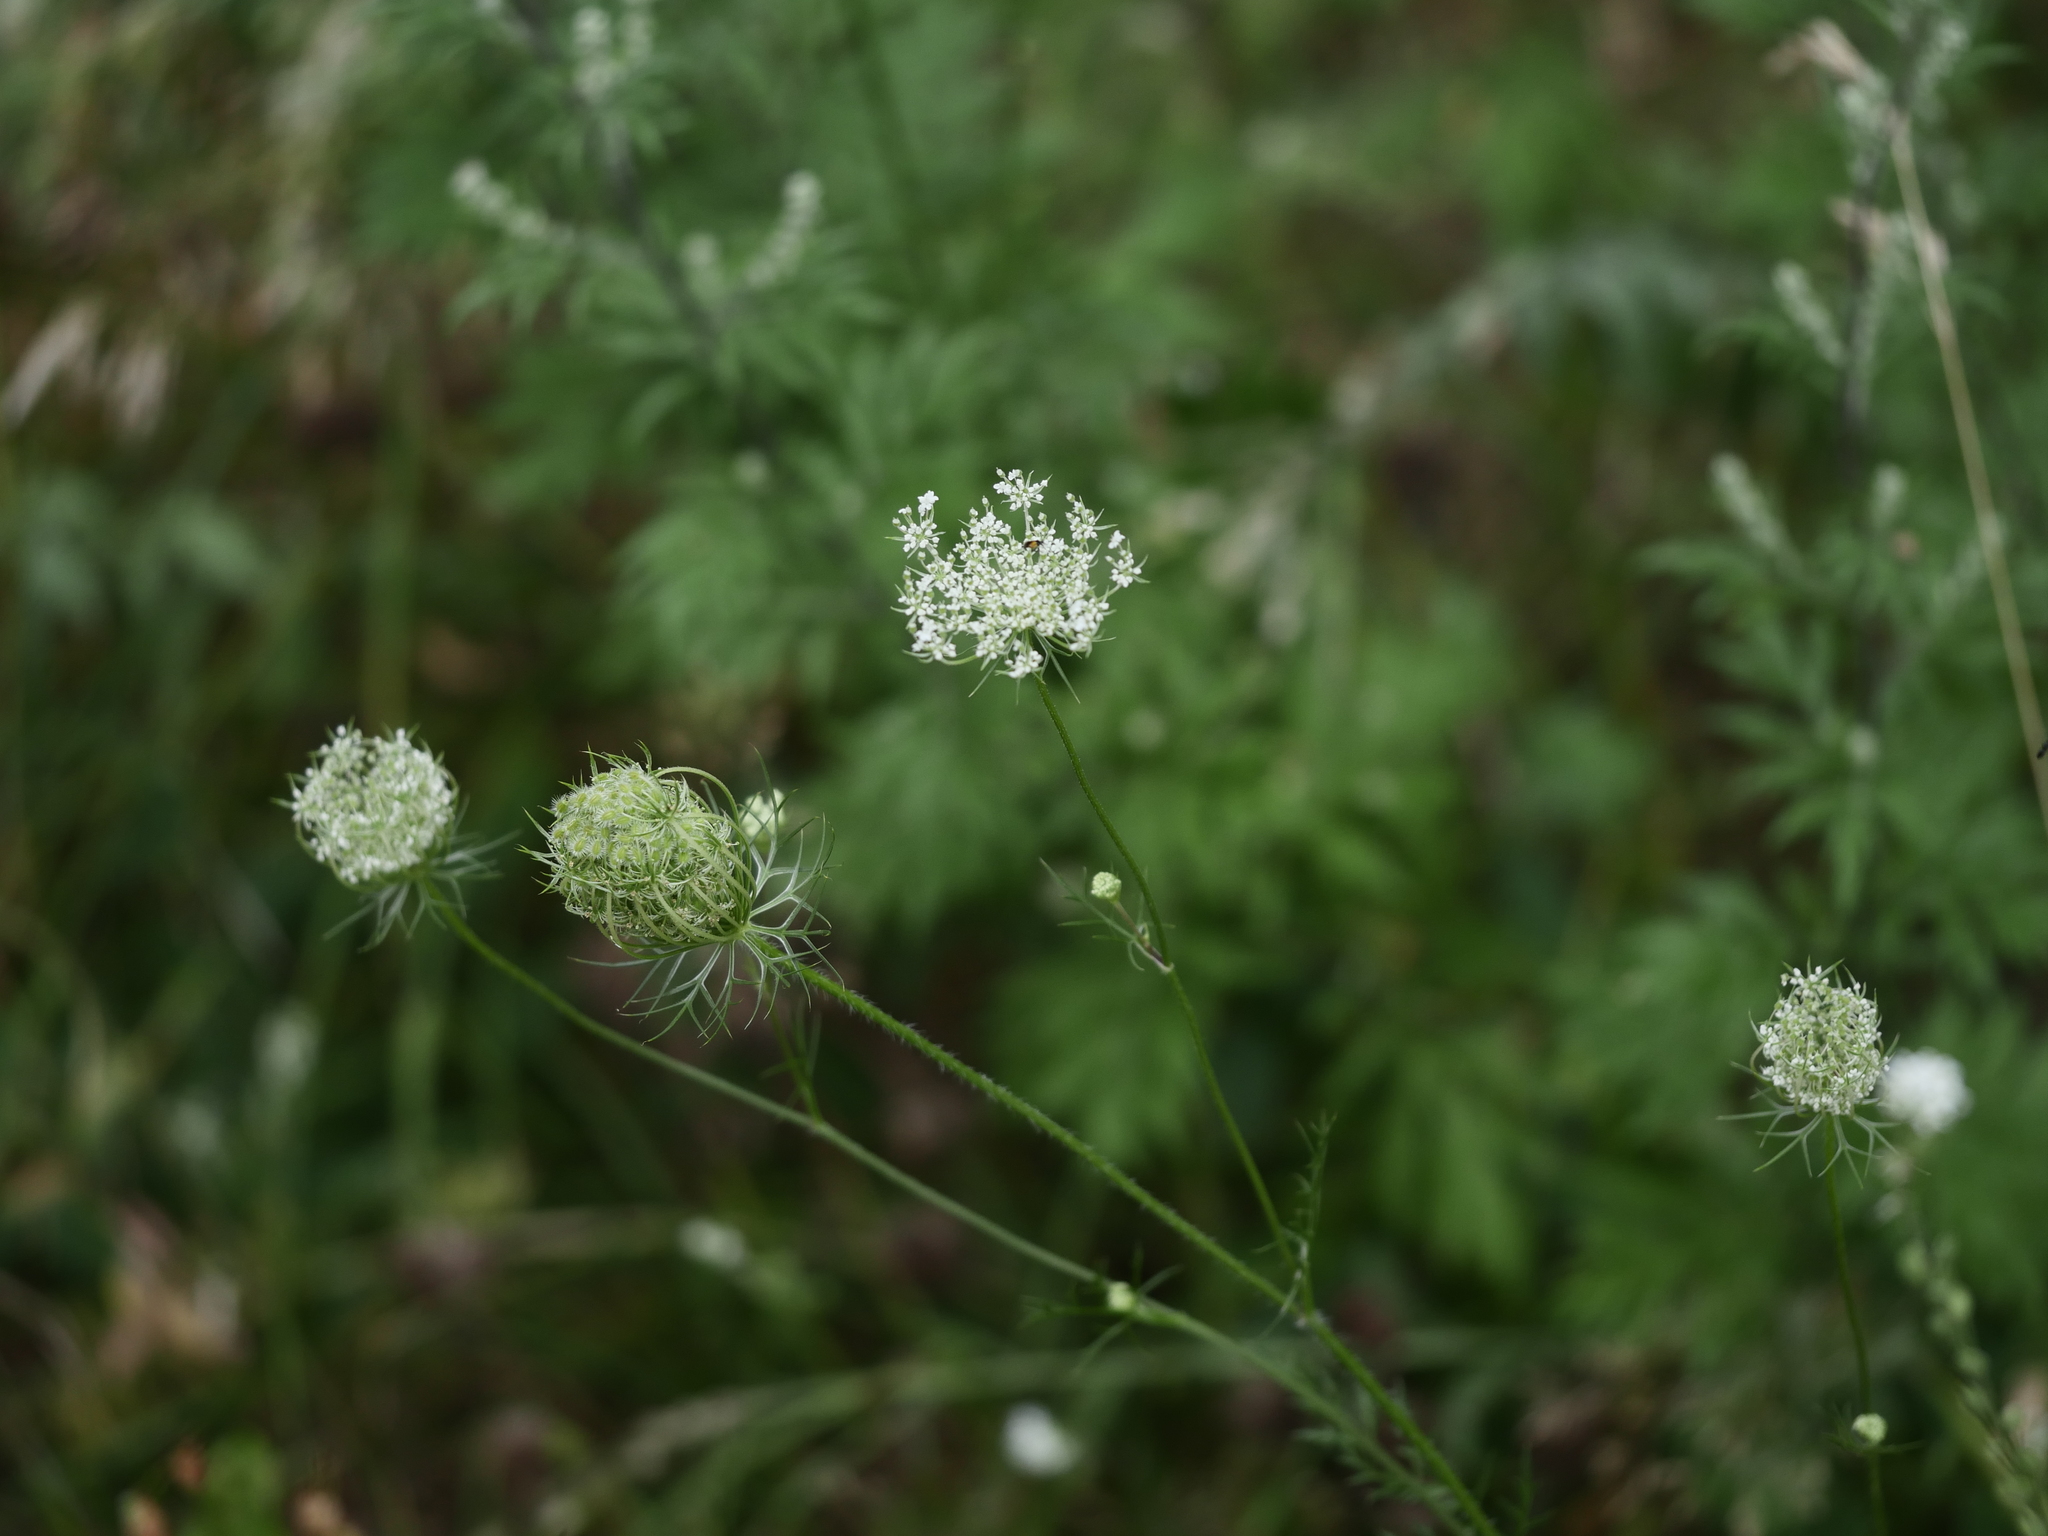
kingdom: Plantae
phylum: Tracheophyta
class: Magnoliopsida
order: Apiales
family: Apiaceae
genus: Daucus
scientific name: Daucus carota
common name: Wild carrot
